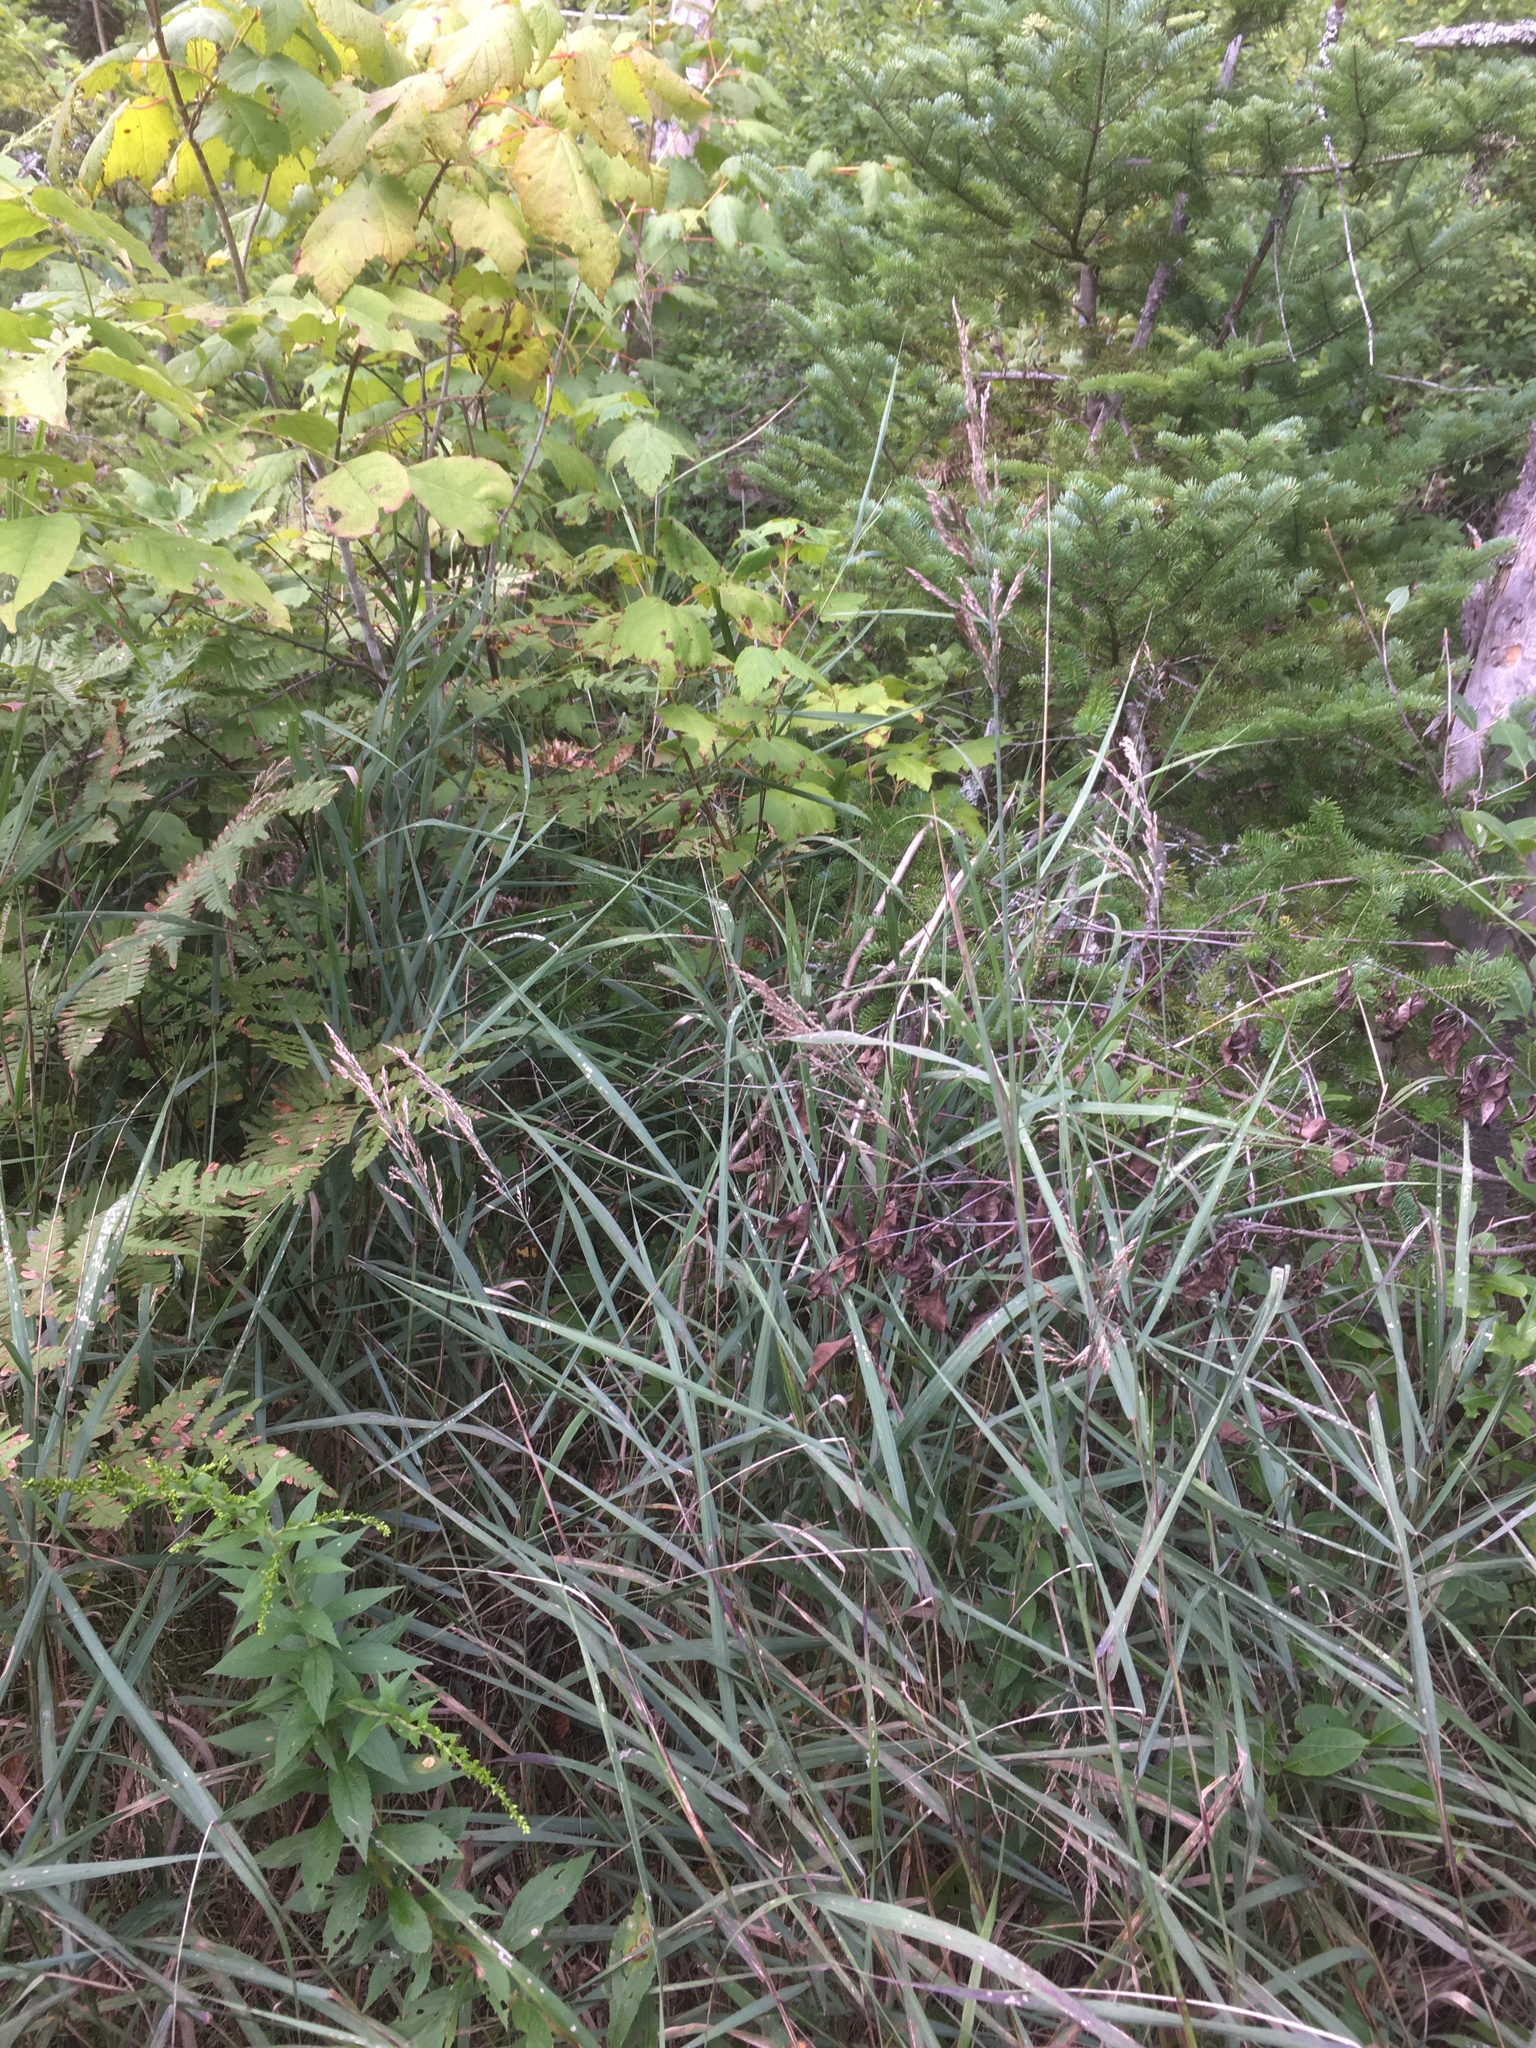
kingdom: Plantae
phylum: Tracheophyta
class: Liliopsida
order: Poales
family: Poaceae
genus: Calamagrostis
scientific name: Calamagrostis canadensis
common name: Canada bluejoint
